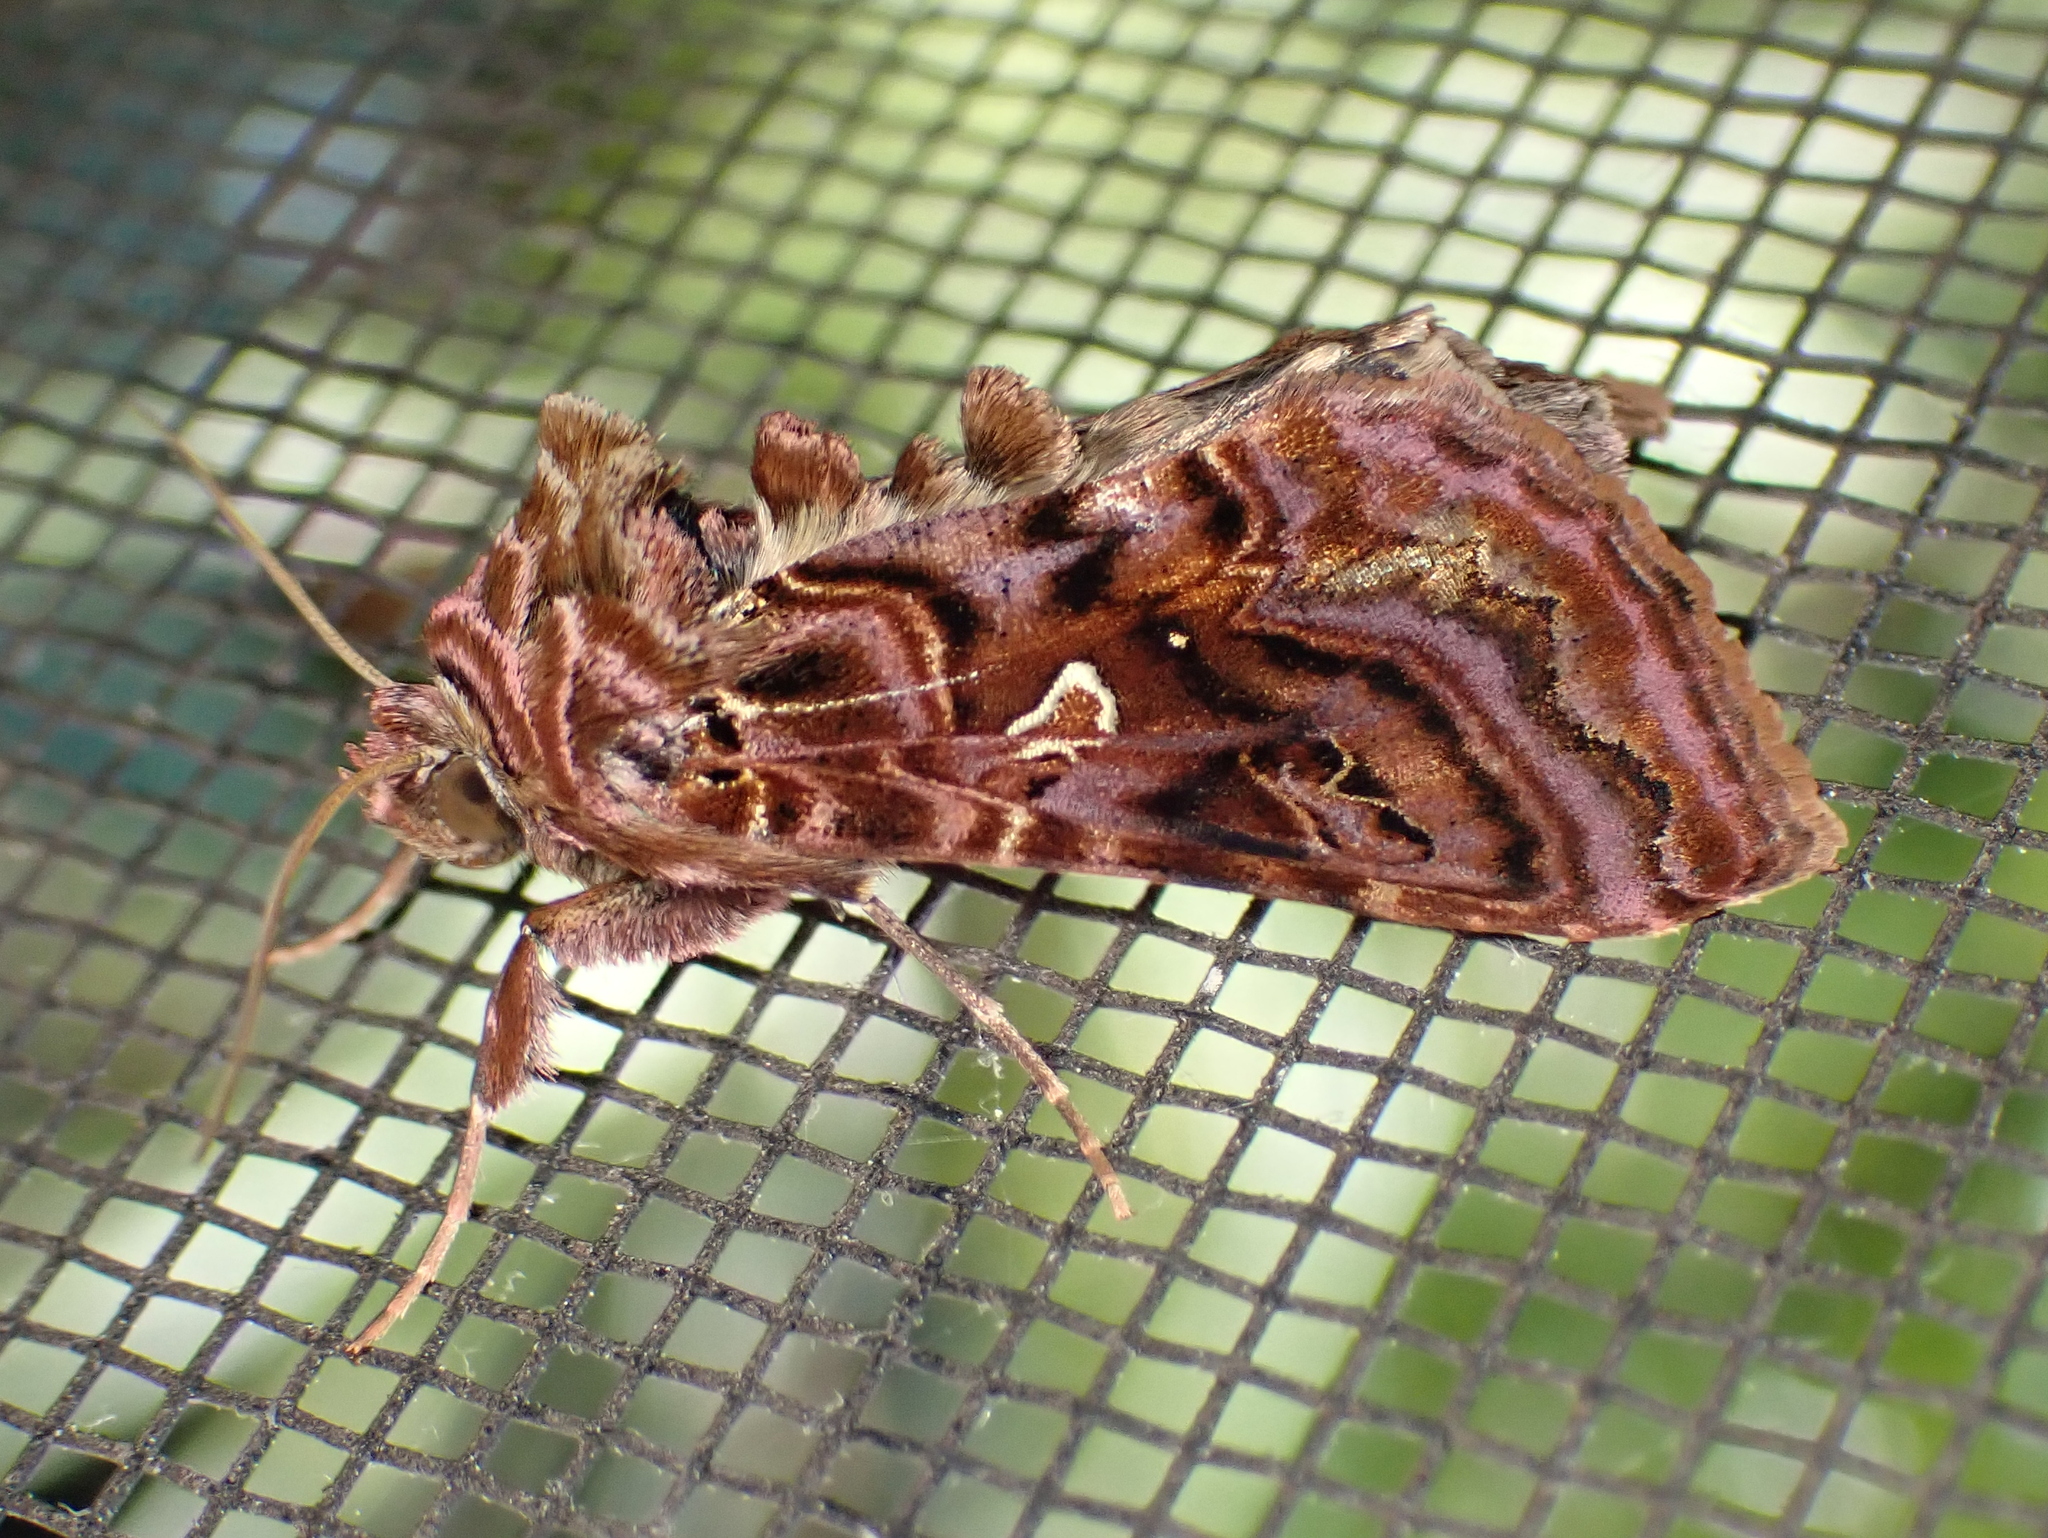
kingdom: Animalia
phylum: Arthropoda
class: Insecta
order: Lepidoptera
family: Noctuidae
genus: Autographa
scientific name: Autographa mappa
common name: Wavy chestnut y moth
